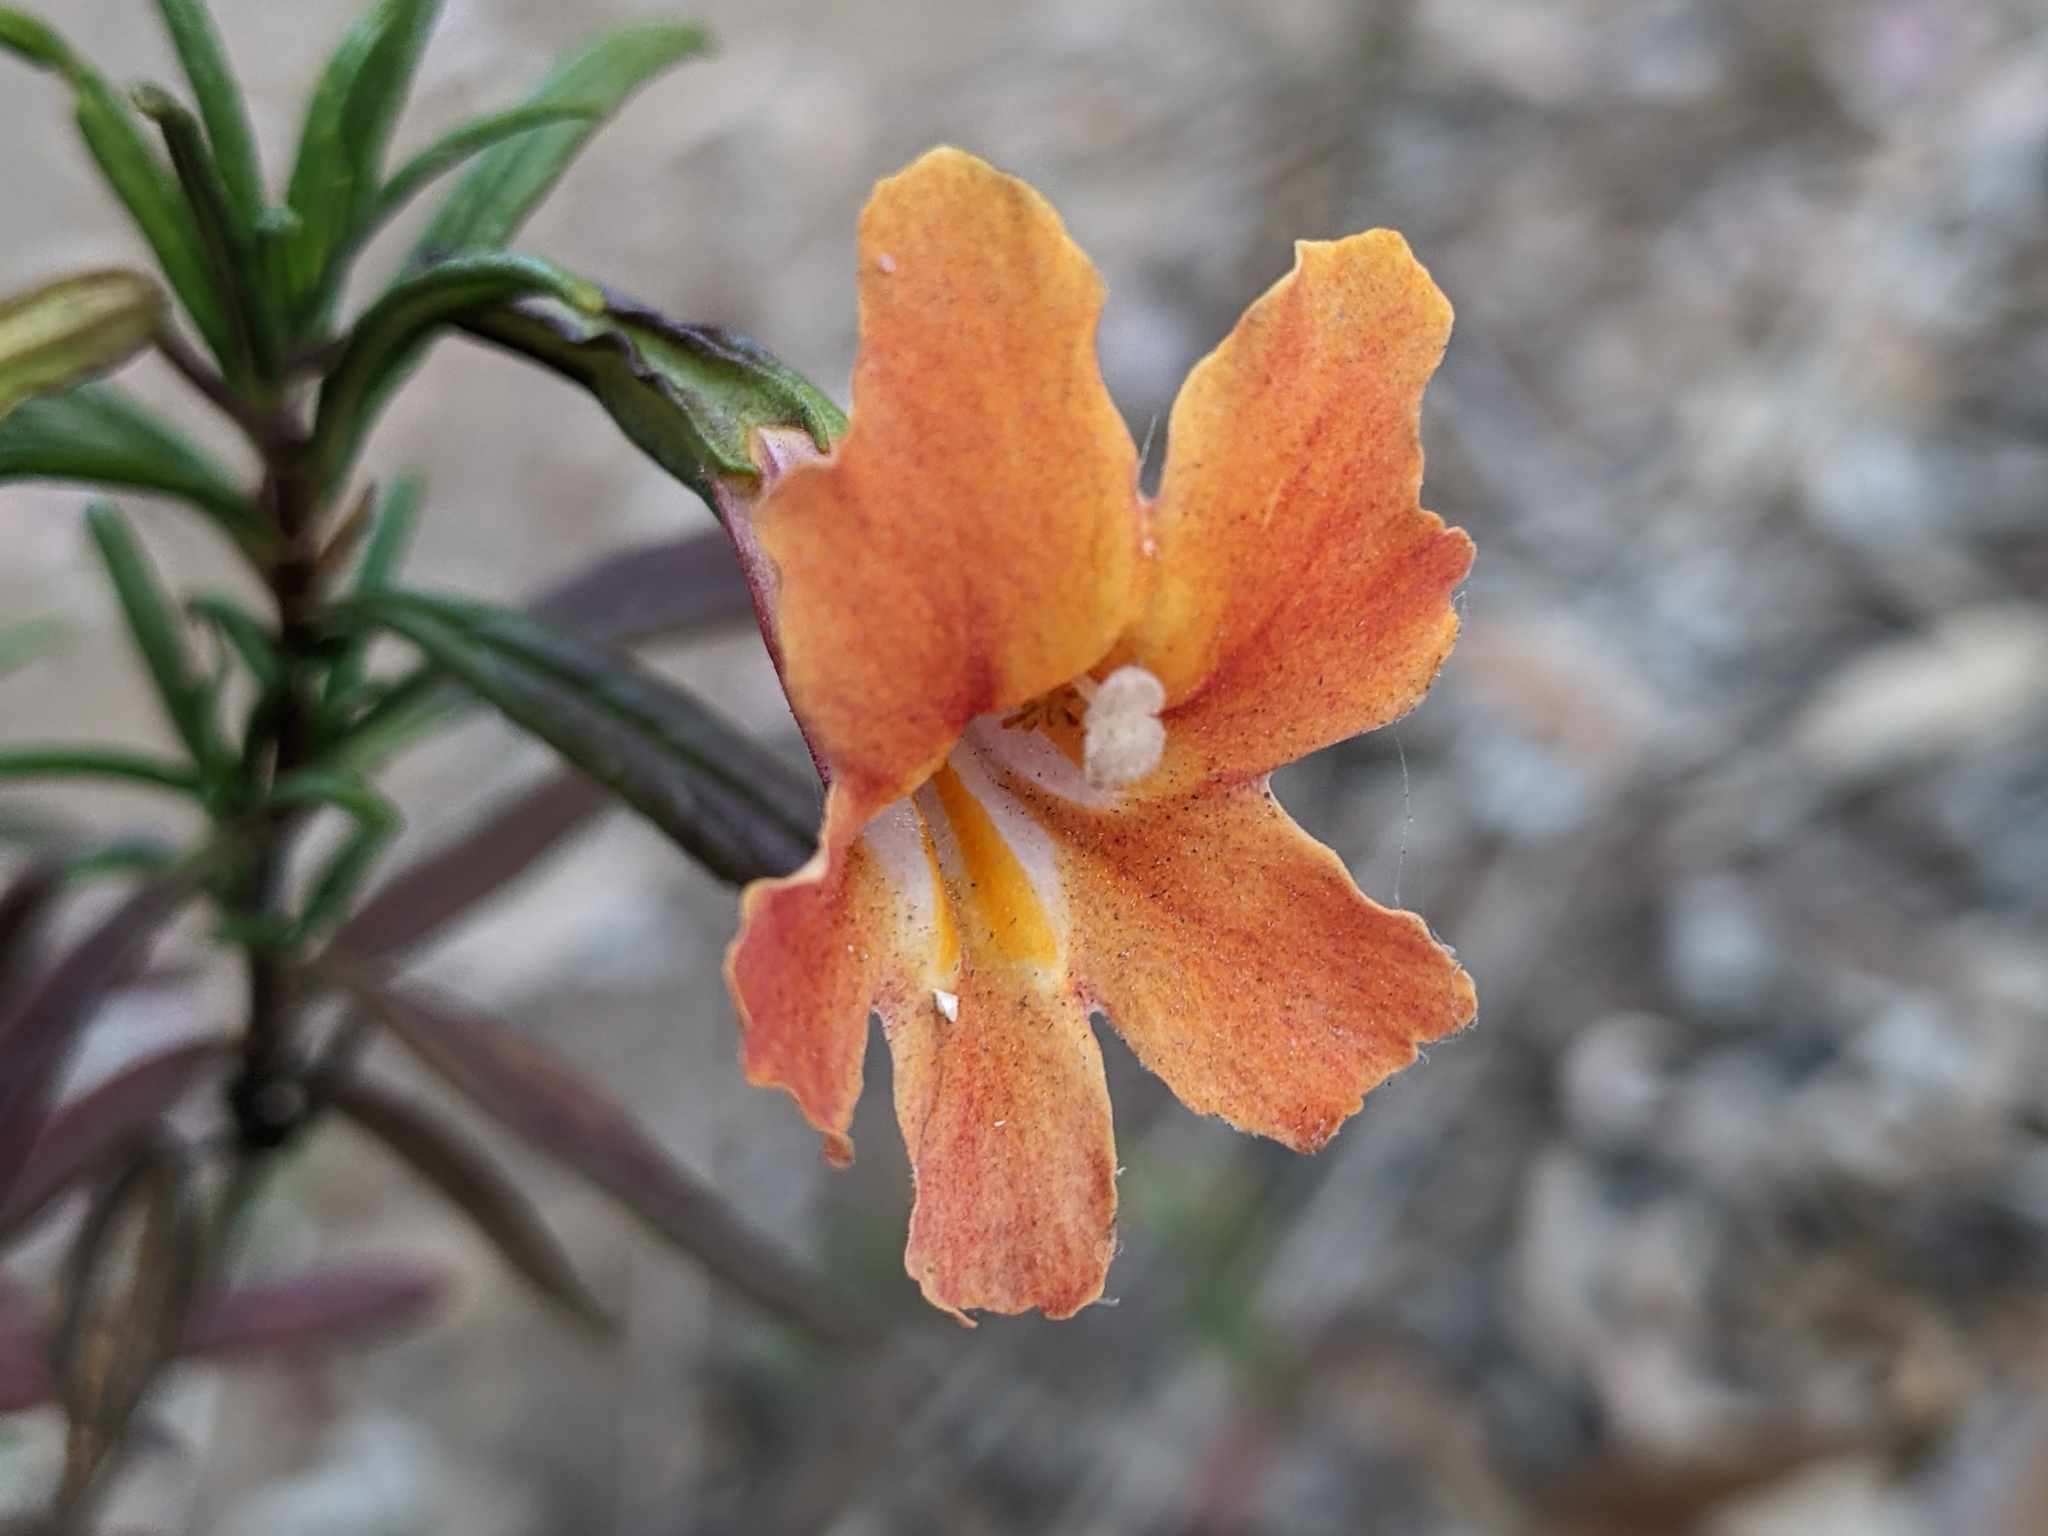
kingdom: Plantae
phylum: Tracheophyta
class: Magnoliopsida
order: Lamiales
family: Phrymaceae
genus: Diplacus
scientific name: Diplacus puniceus
